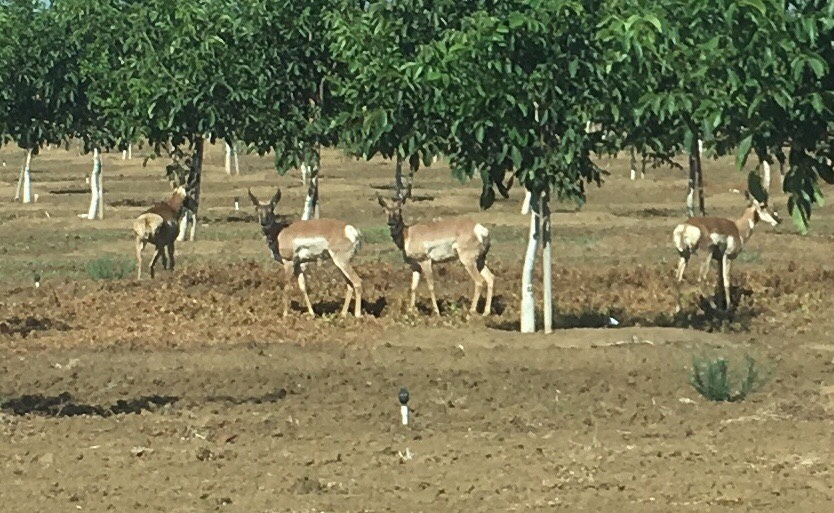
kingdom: Animalia
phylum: Chordata
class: Mammalia
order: Artiodactyla
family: Antilocapridae
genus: Antilocapra
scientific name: Antilocapra americana
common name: Pronghorn
